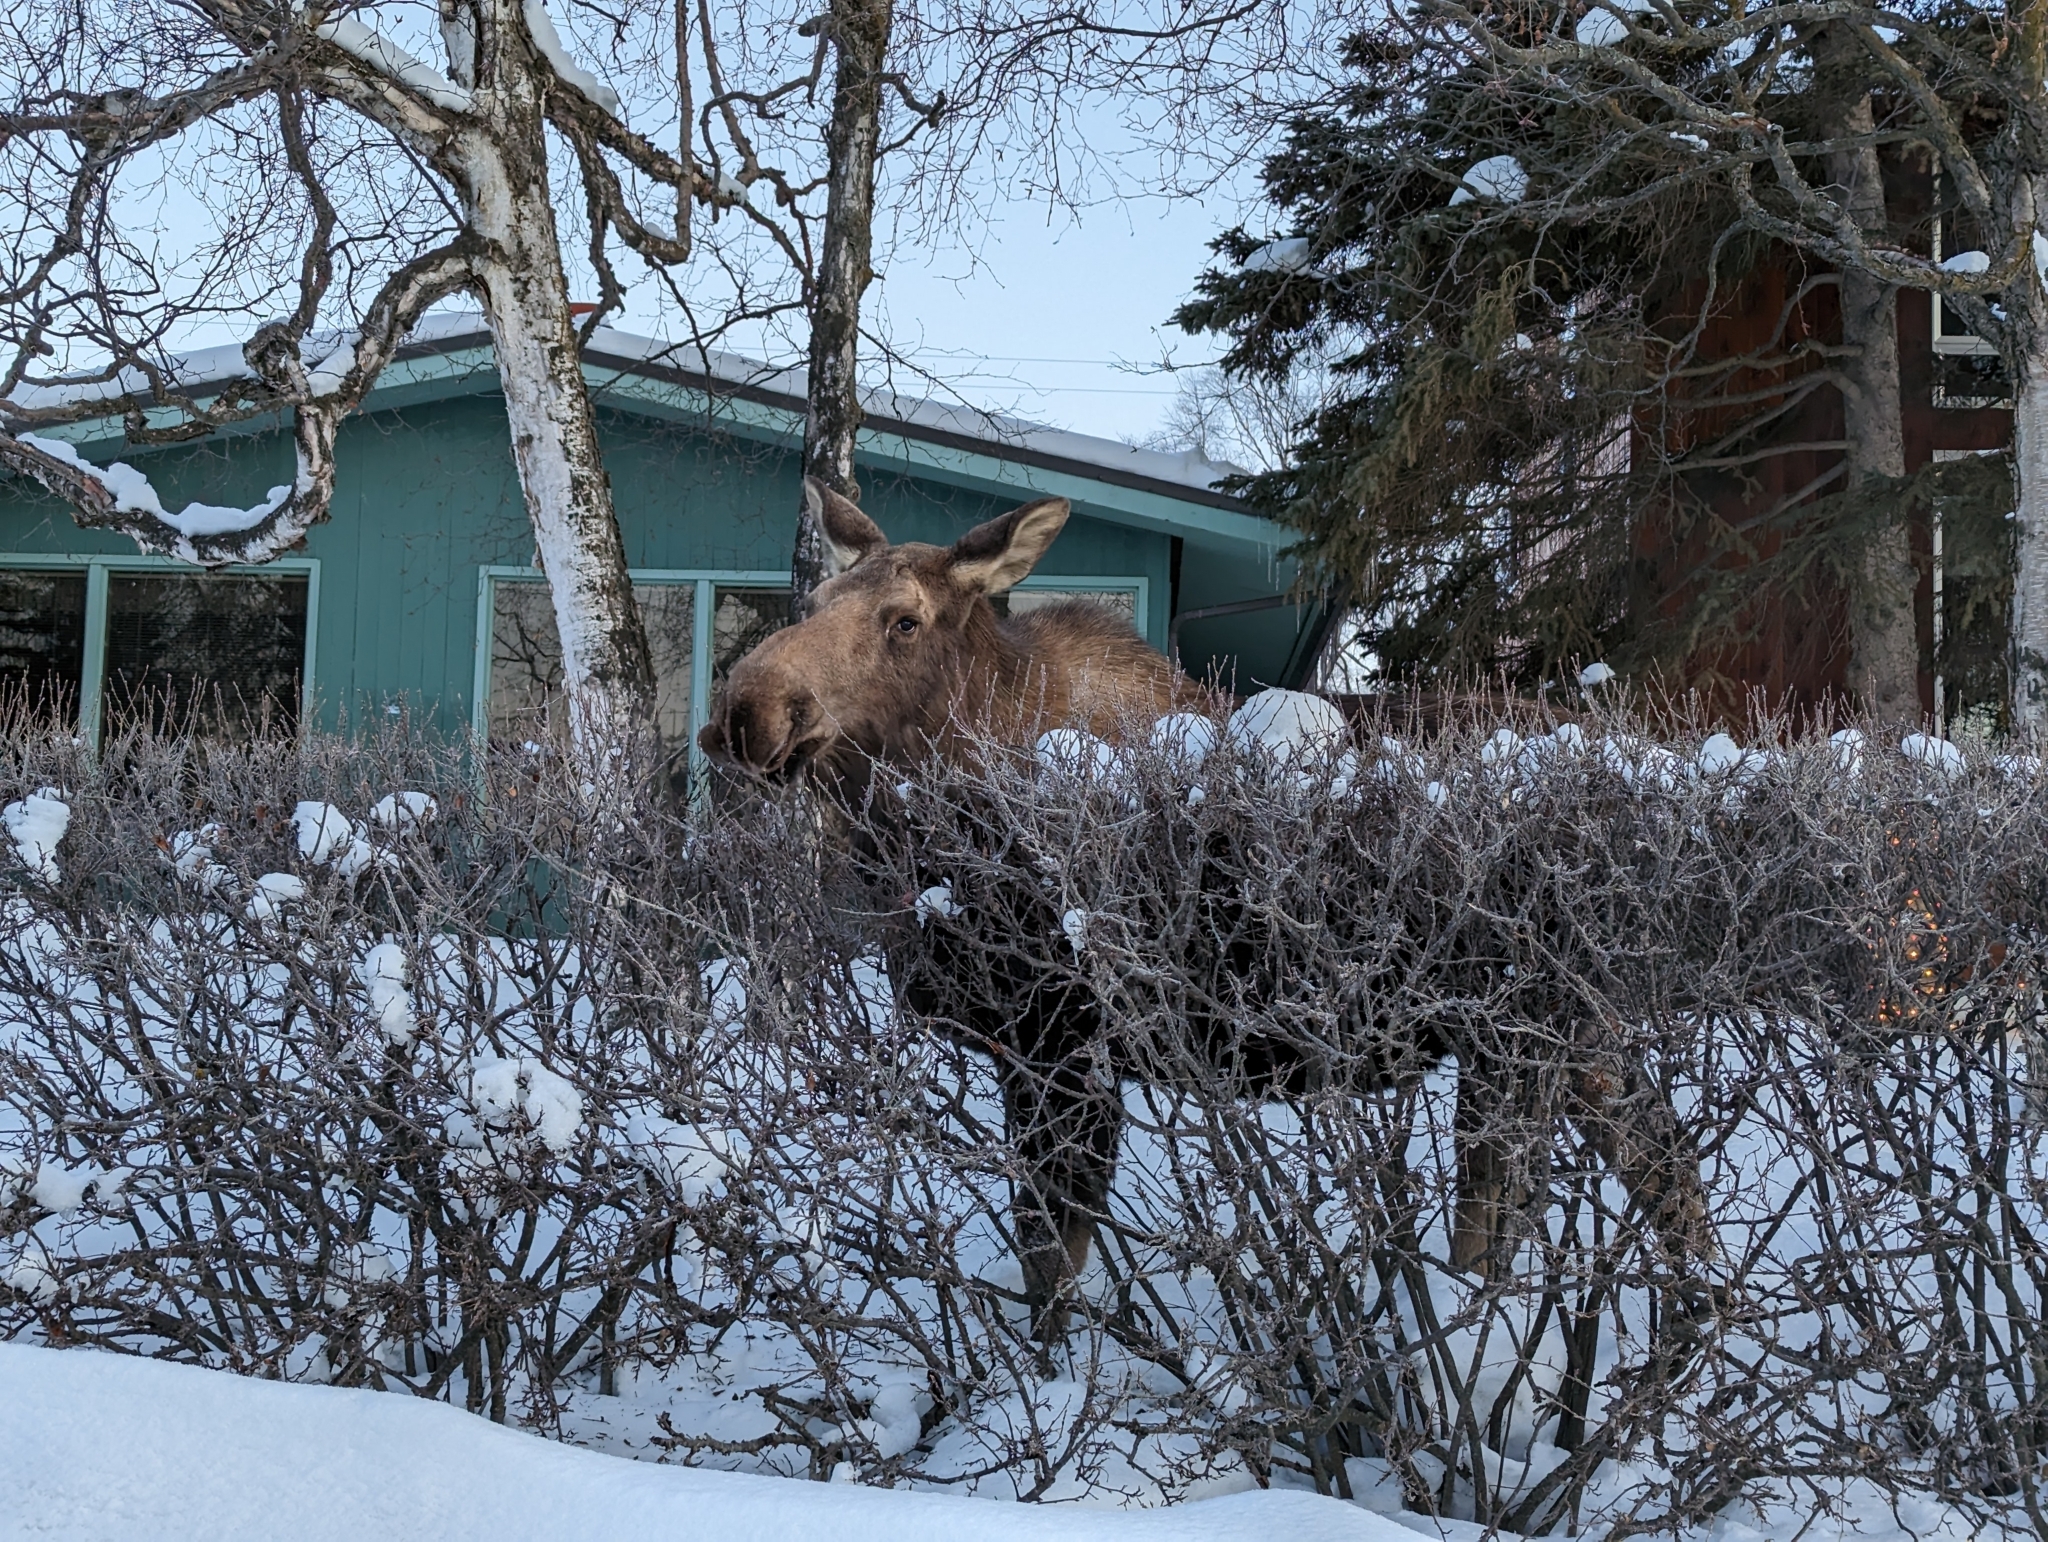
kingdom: Animalia
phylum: Chordata
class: Mammalia
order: Artiodactyla
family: Cervidae
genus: Alces
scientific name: Alces alces
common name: Moose
